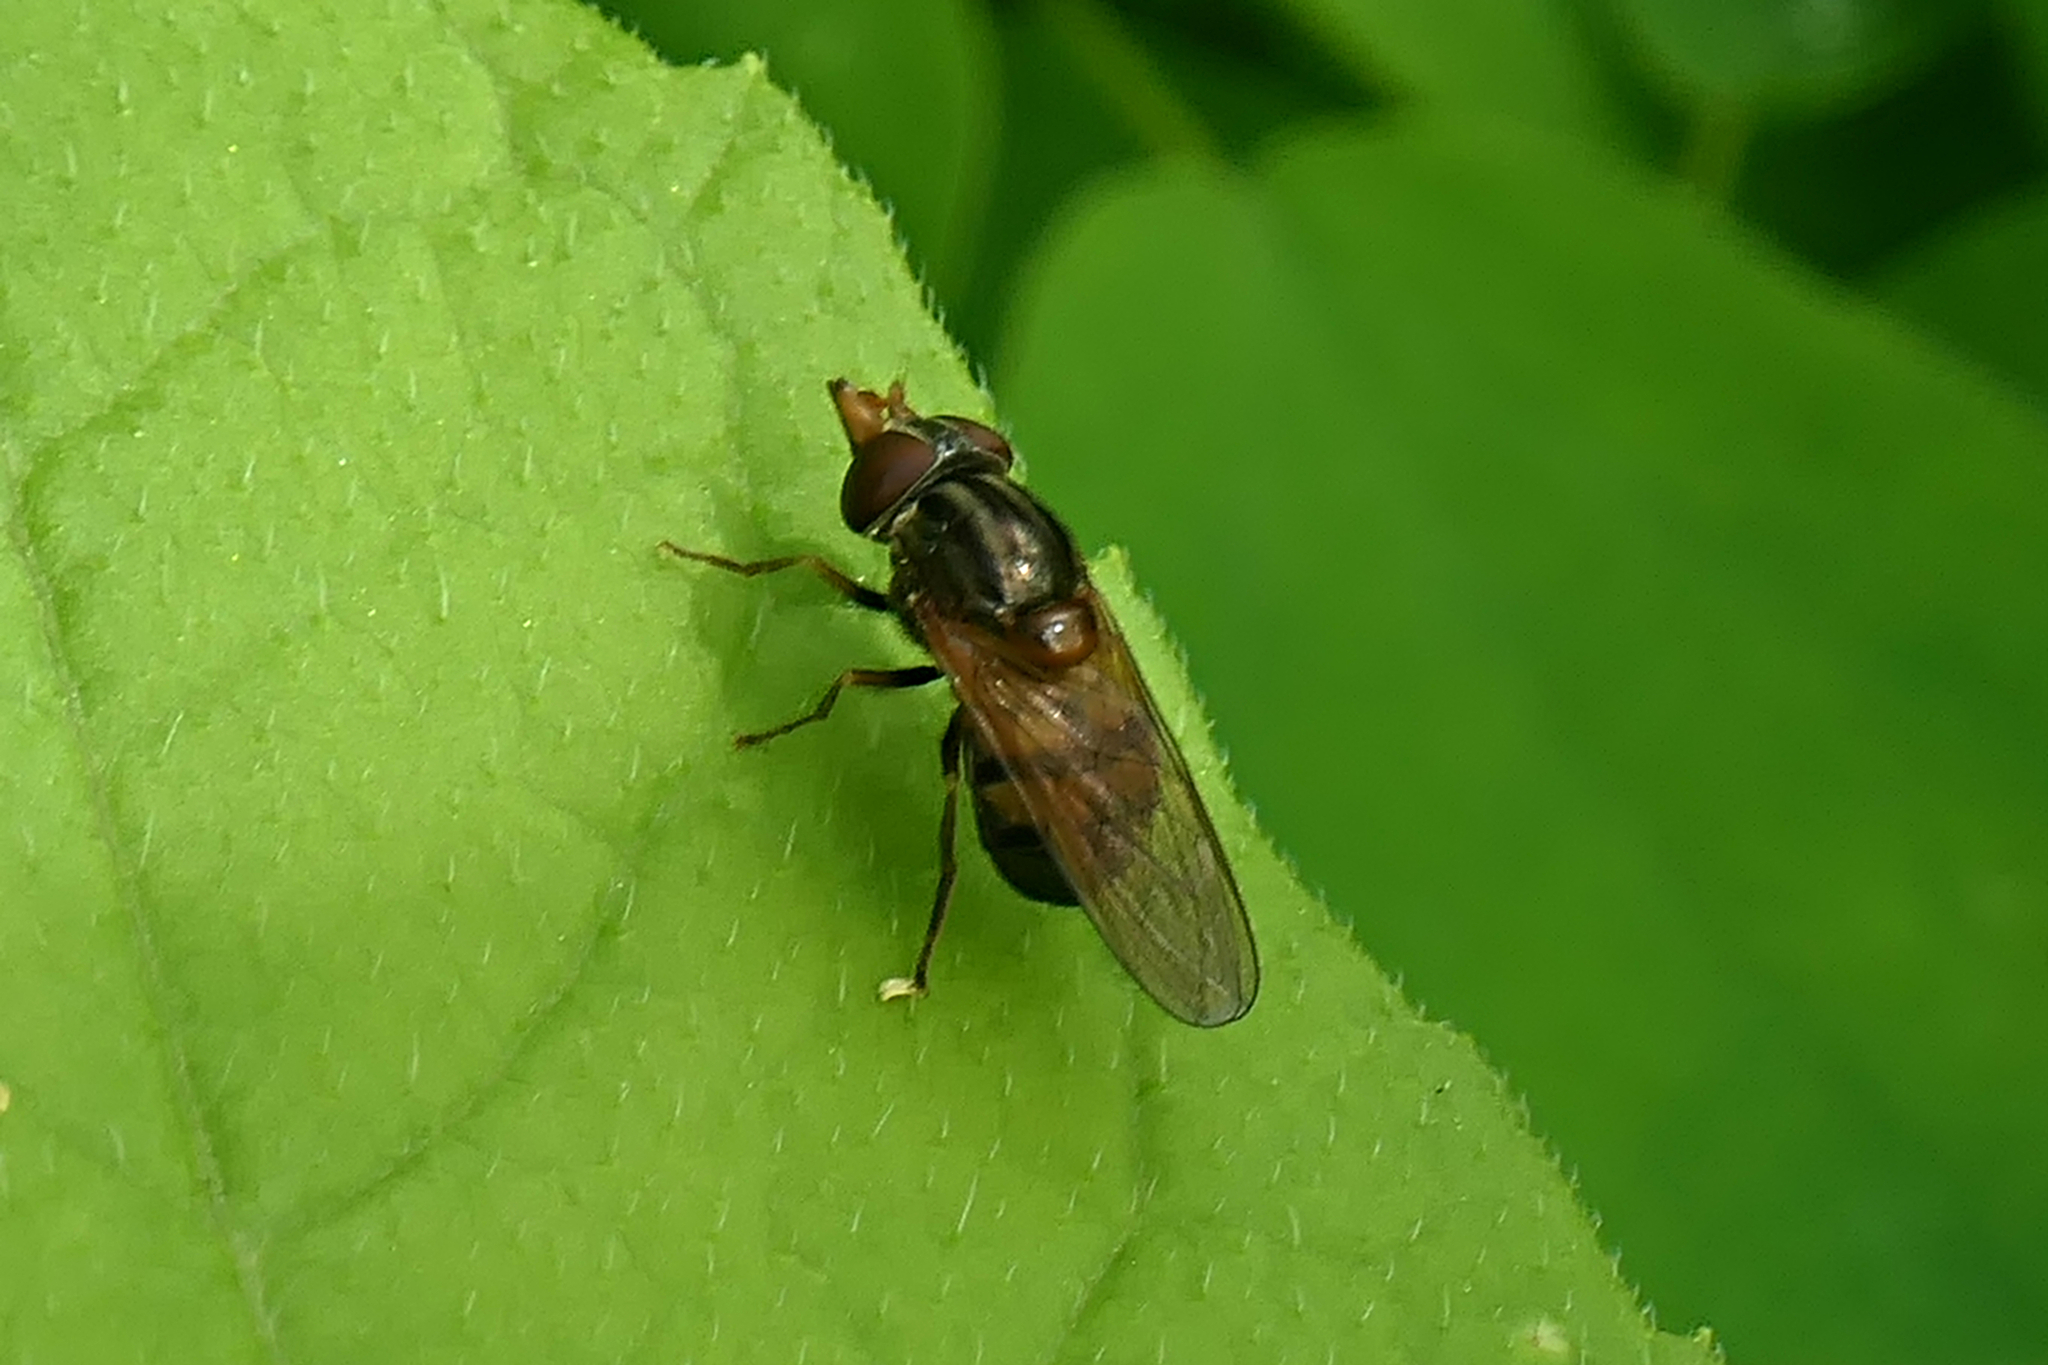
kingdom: Animalia
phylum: Arthropoda
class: Insecta
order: Diptera
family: Syrphidae
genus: Rhingia
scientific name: Rhingia nasica
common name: American snout fly
